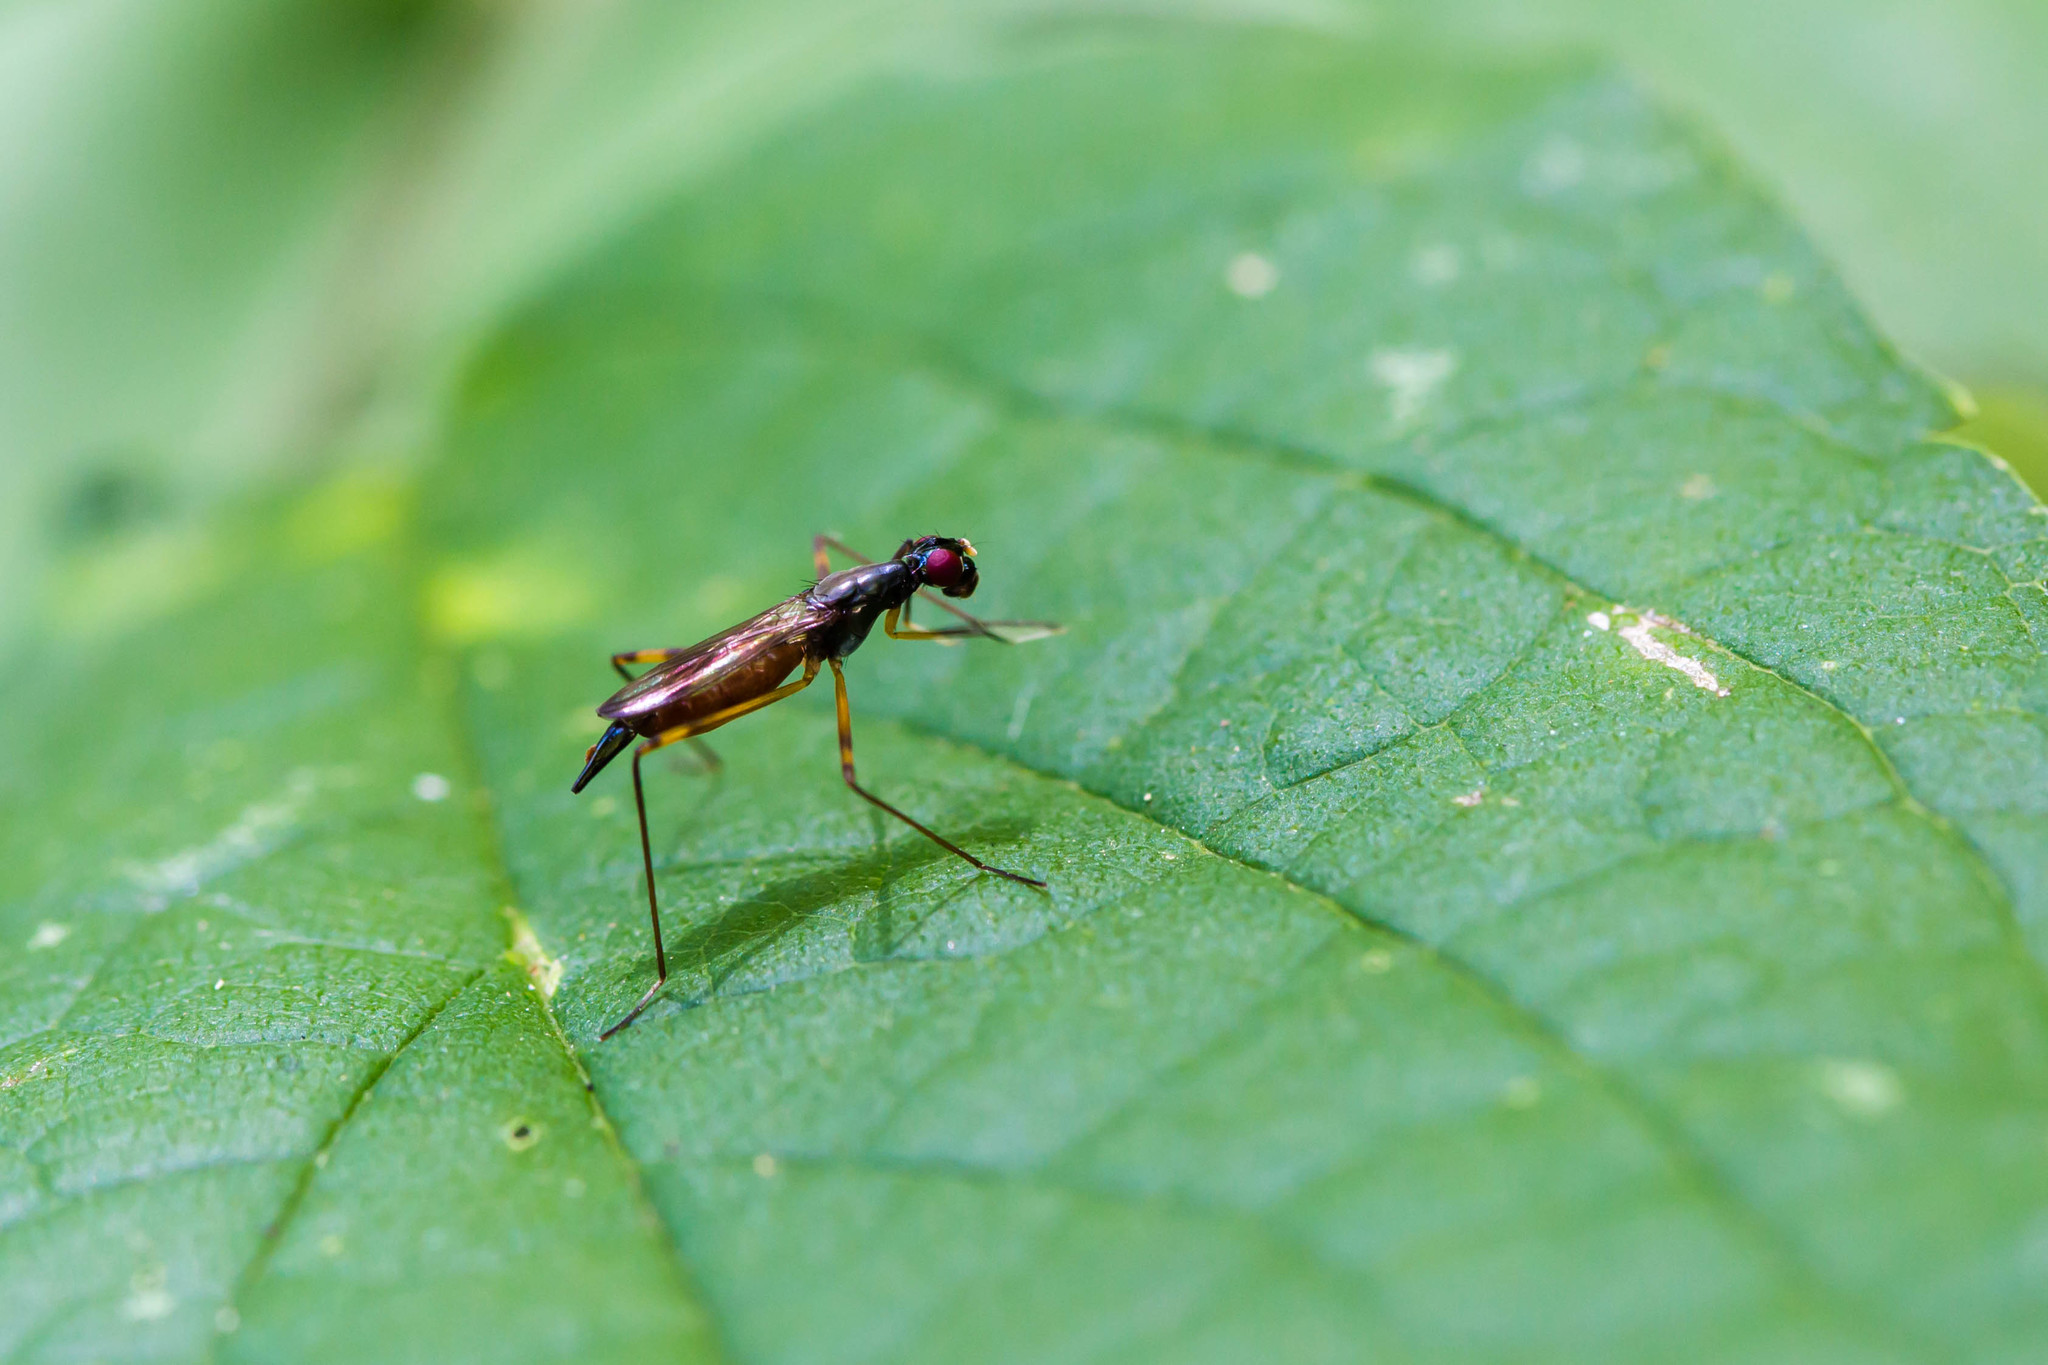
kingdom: Animalia
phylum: Arthropoda
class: Insecta
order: Diptera
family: Micropezidae
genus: Rainieria
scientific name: Rainieria antennaepes
